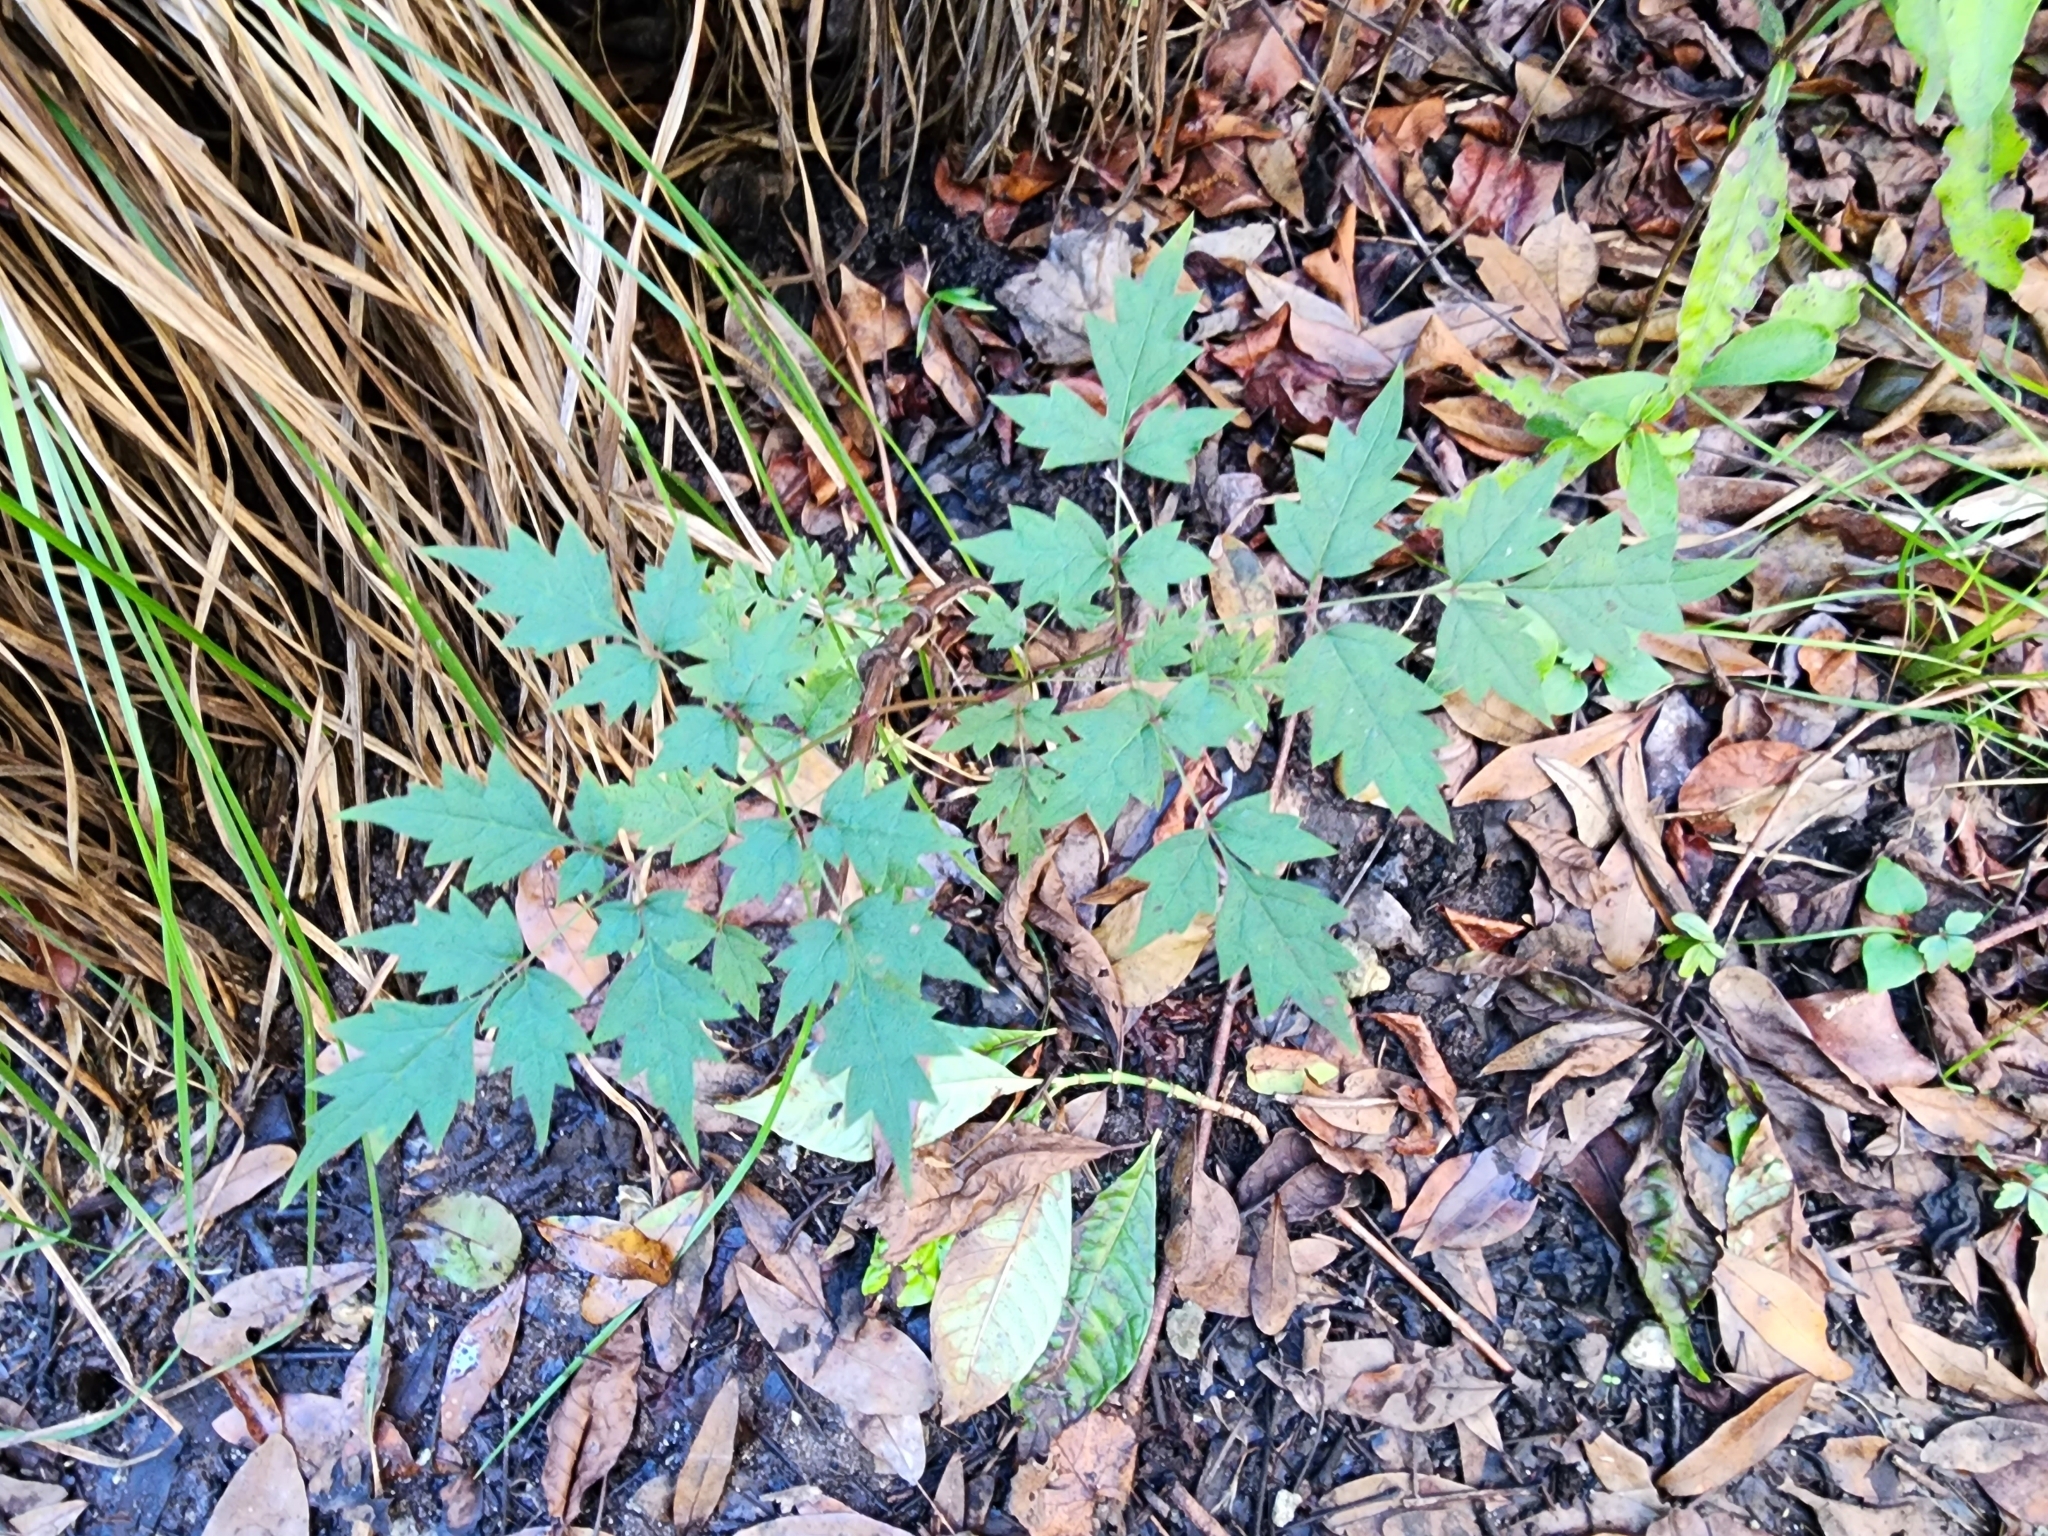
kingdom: Plantae
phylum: Tracheophyta
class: Magnoliopsida
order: Vitales
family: Vitaceae
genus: Nekemias
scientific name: Nekemias arborea
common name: Peppervine
